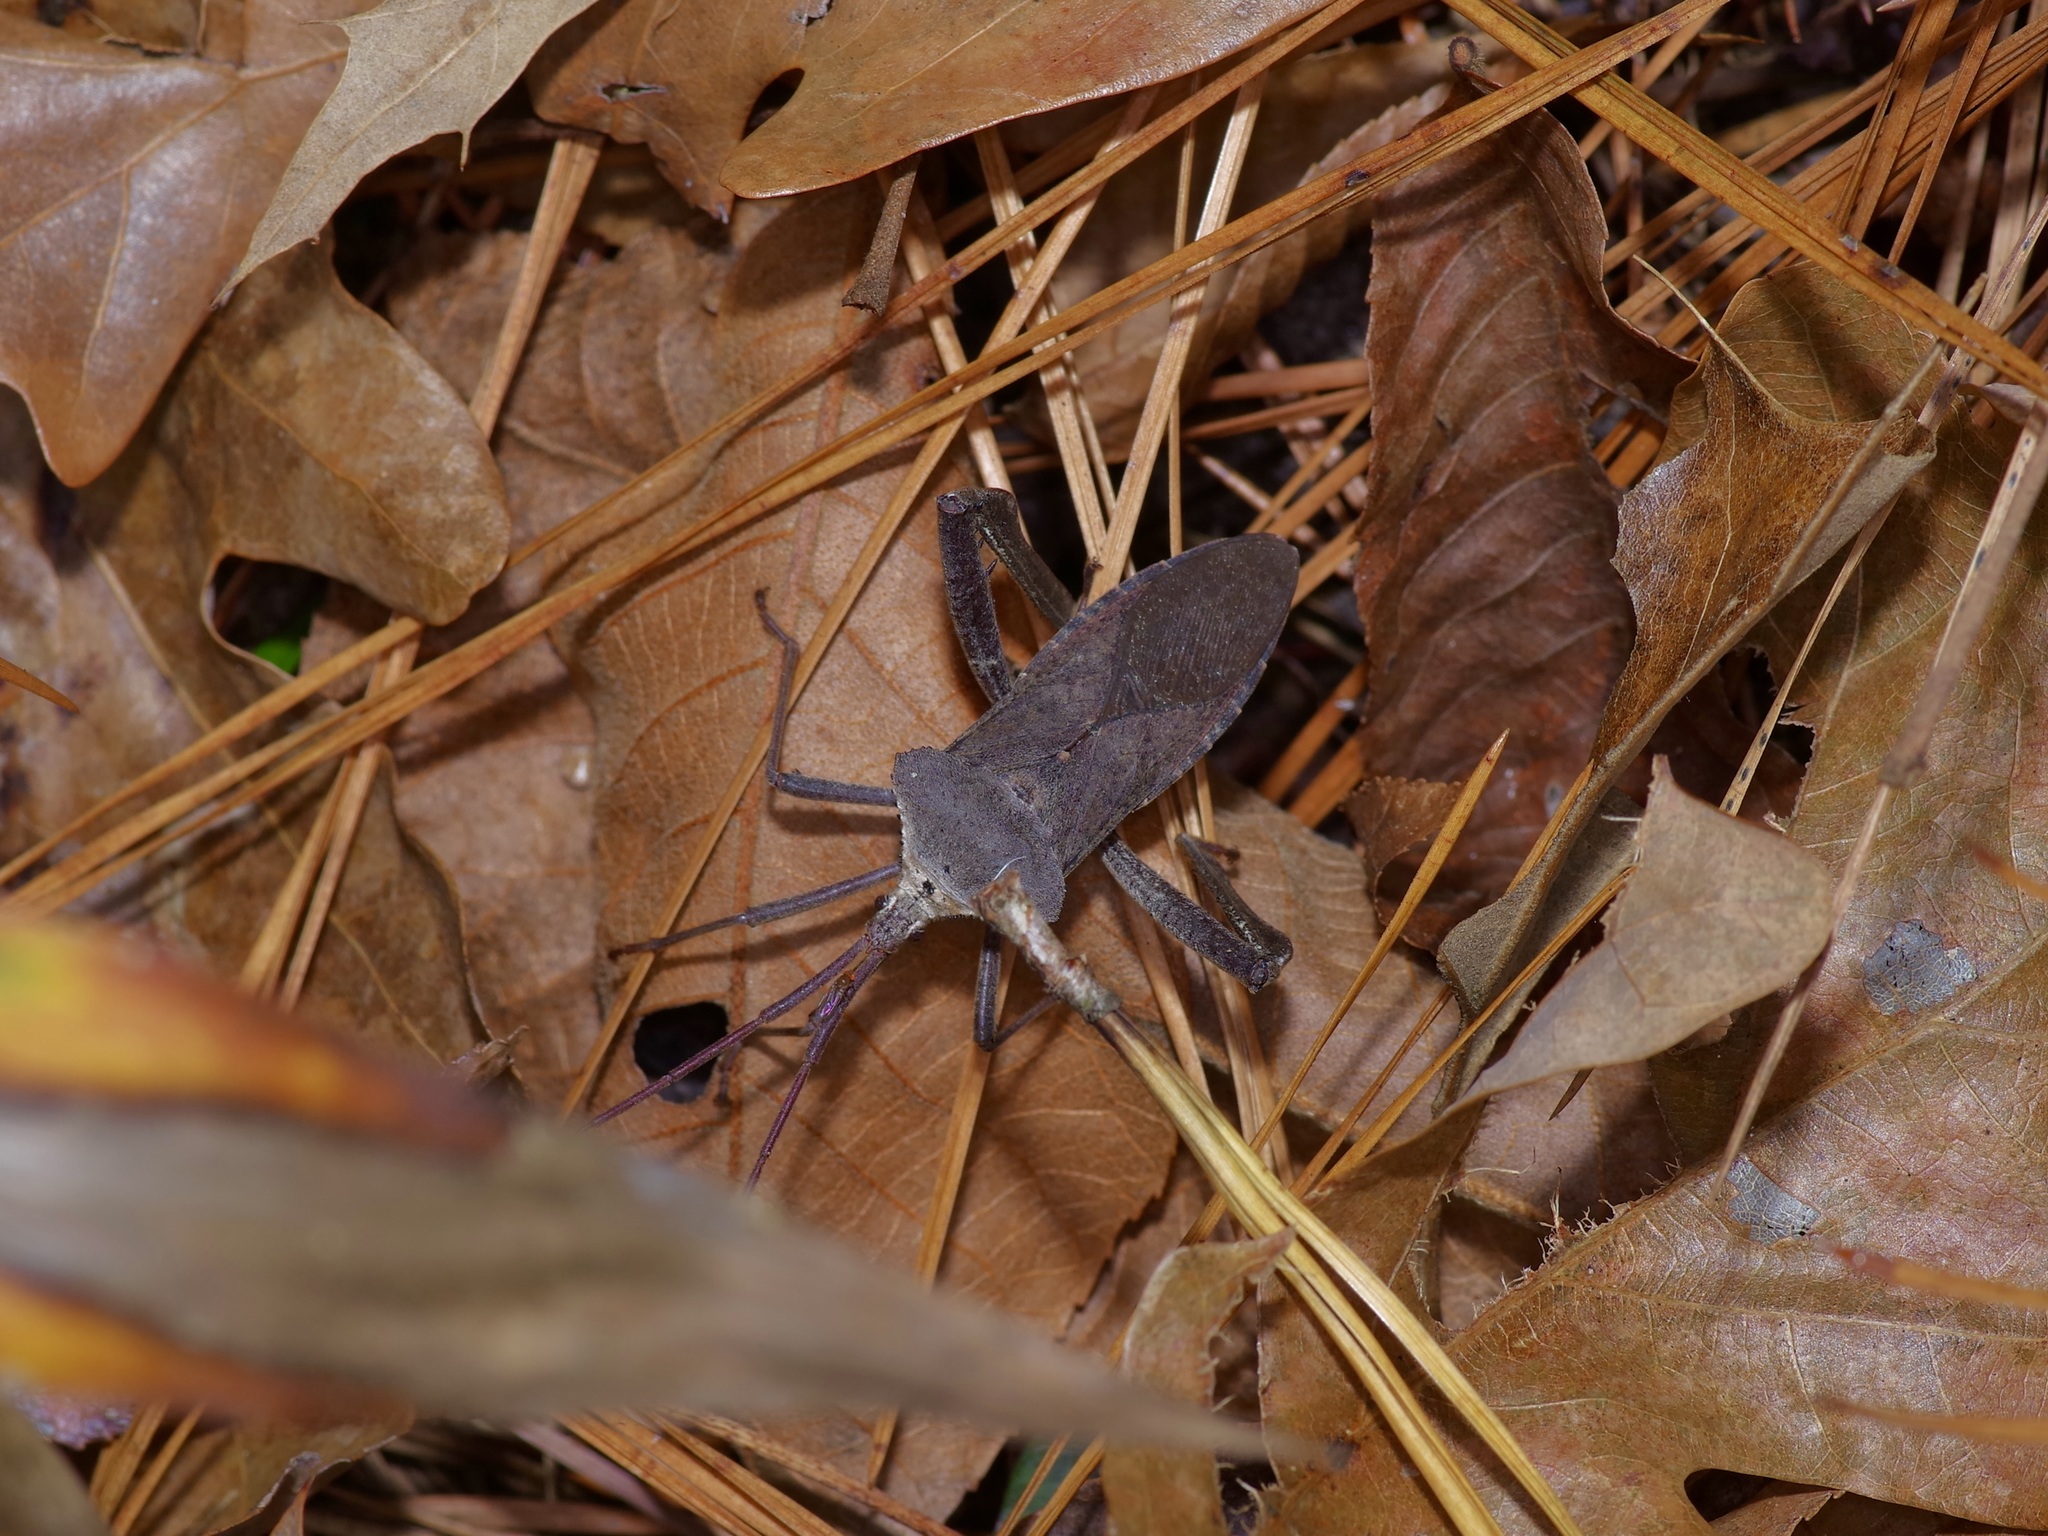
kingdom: Animalia
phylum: Arthropoda
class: Insecta
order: Hemiptera
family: Coreidae
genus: Acanthocephala
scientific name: Acanthocephala declivis
